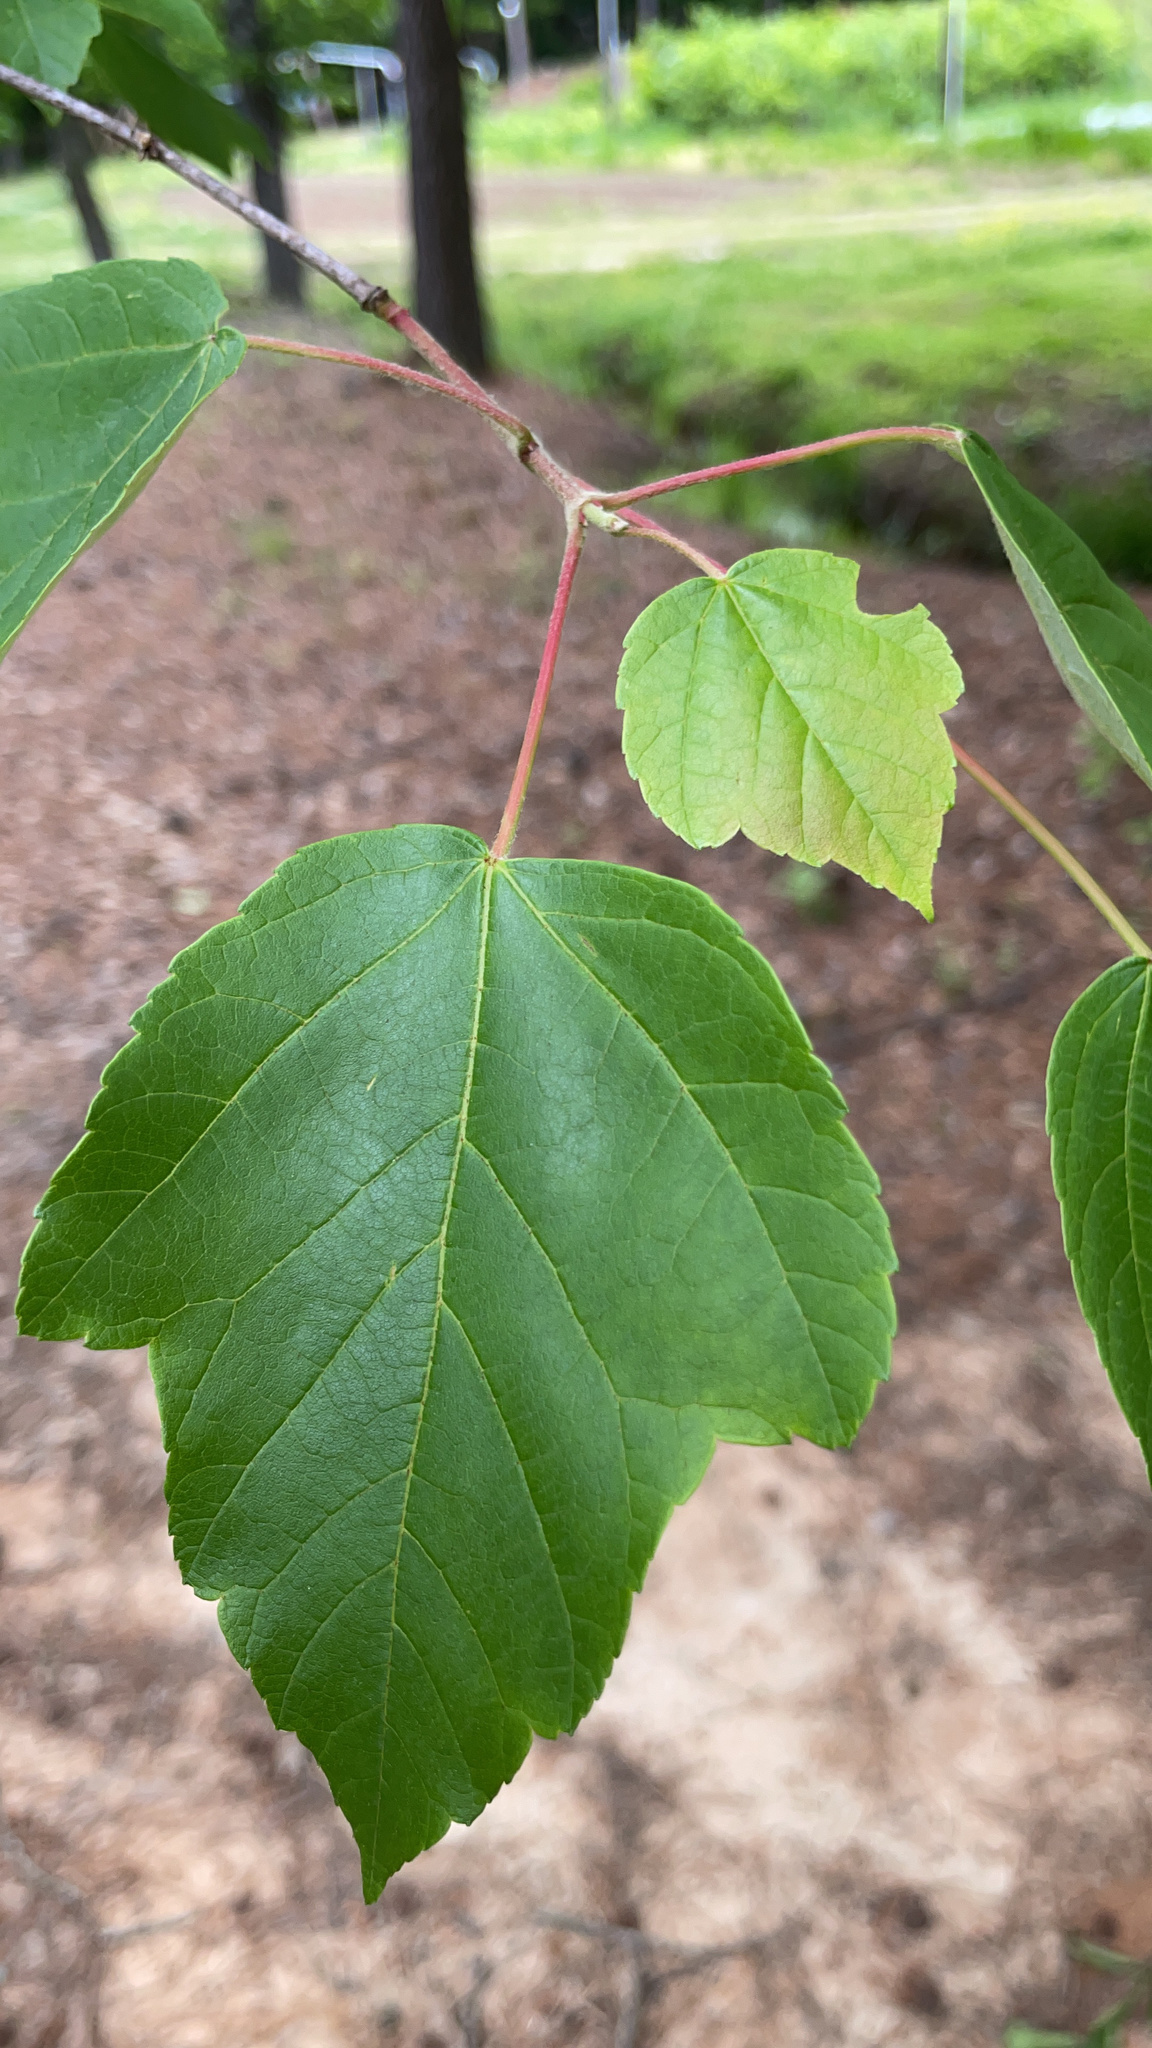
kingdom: Plantae
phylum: Tracheophyta
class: Magnoliopsida
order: Sapindales
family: Sapindaceae
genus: Acer
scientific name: Acer rubrum
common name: Red maple
